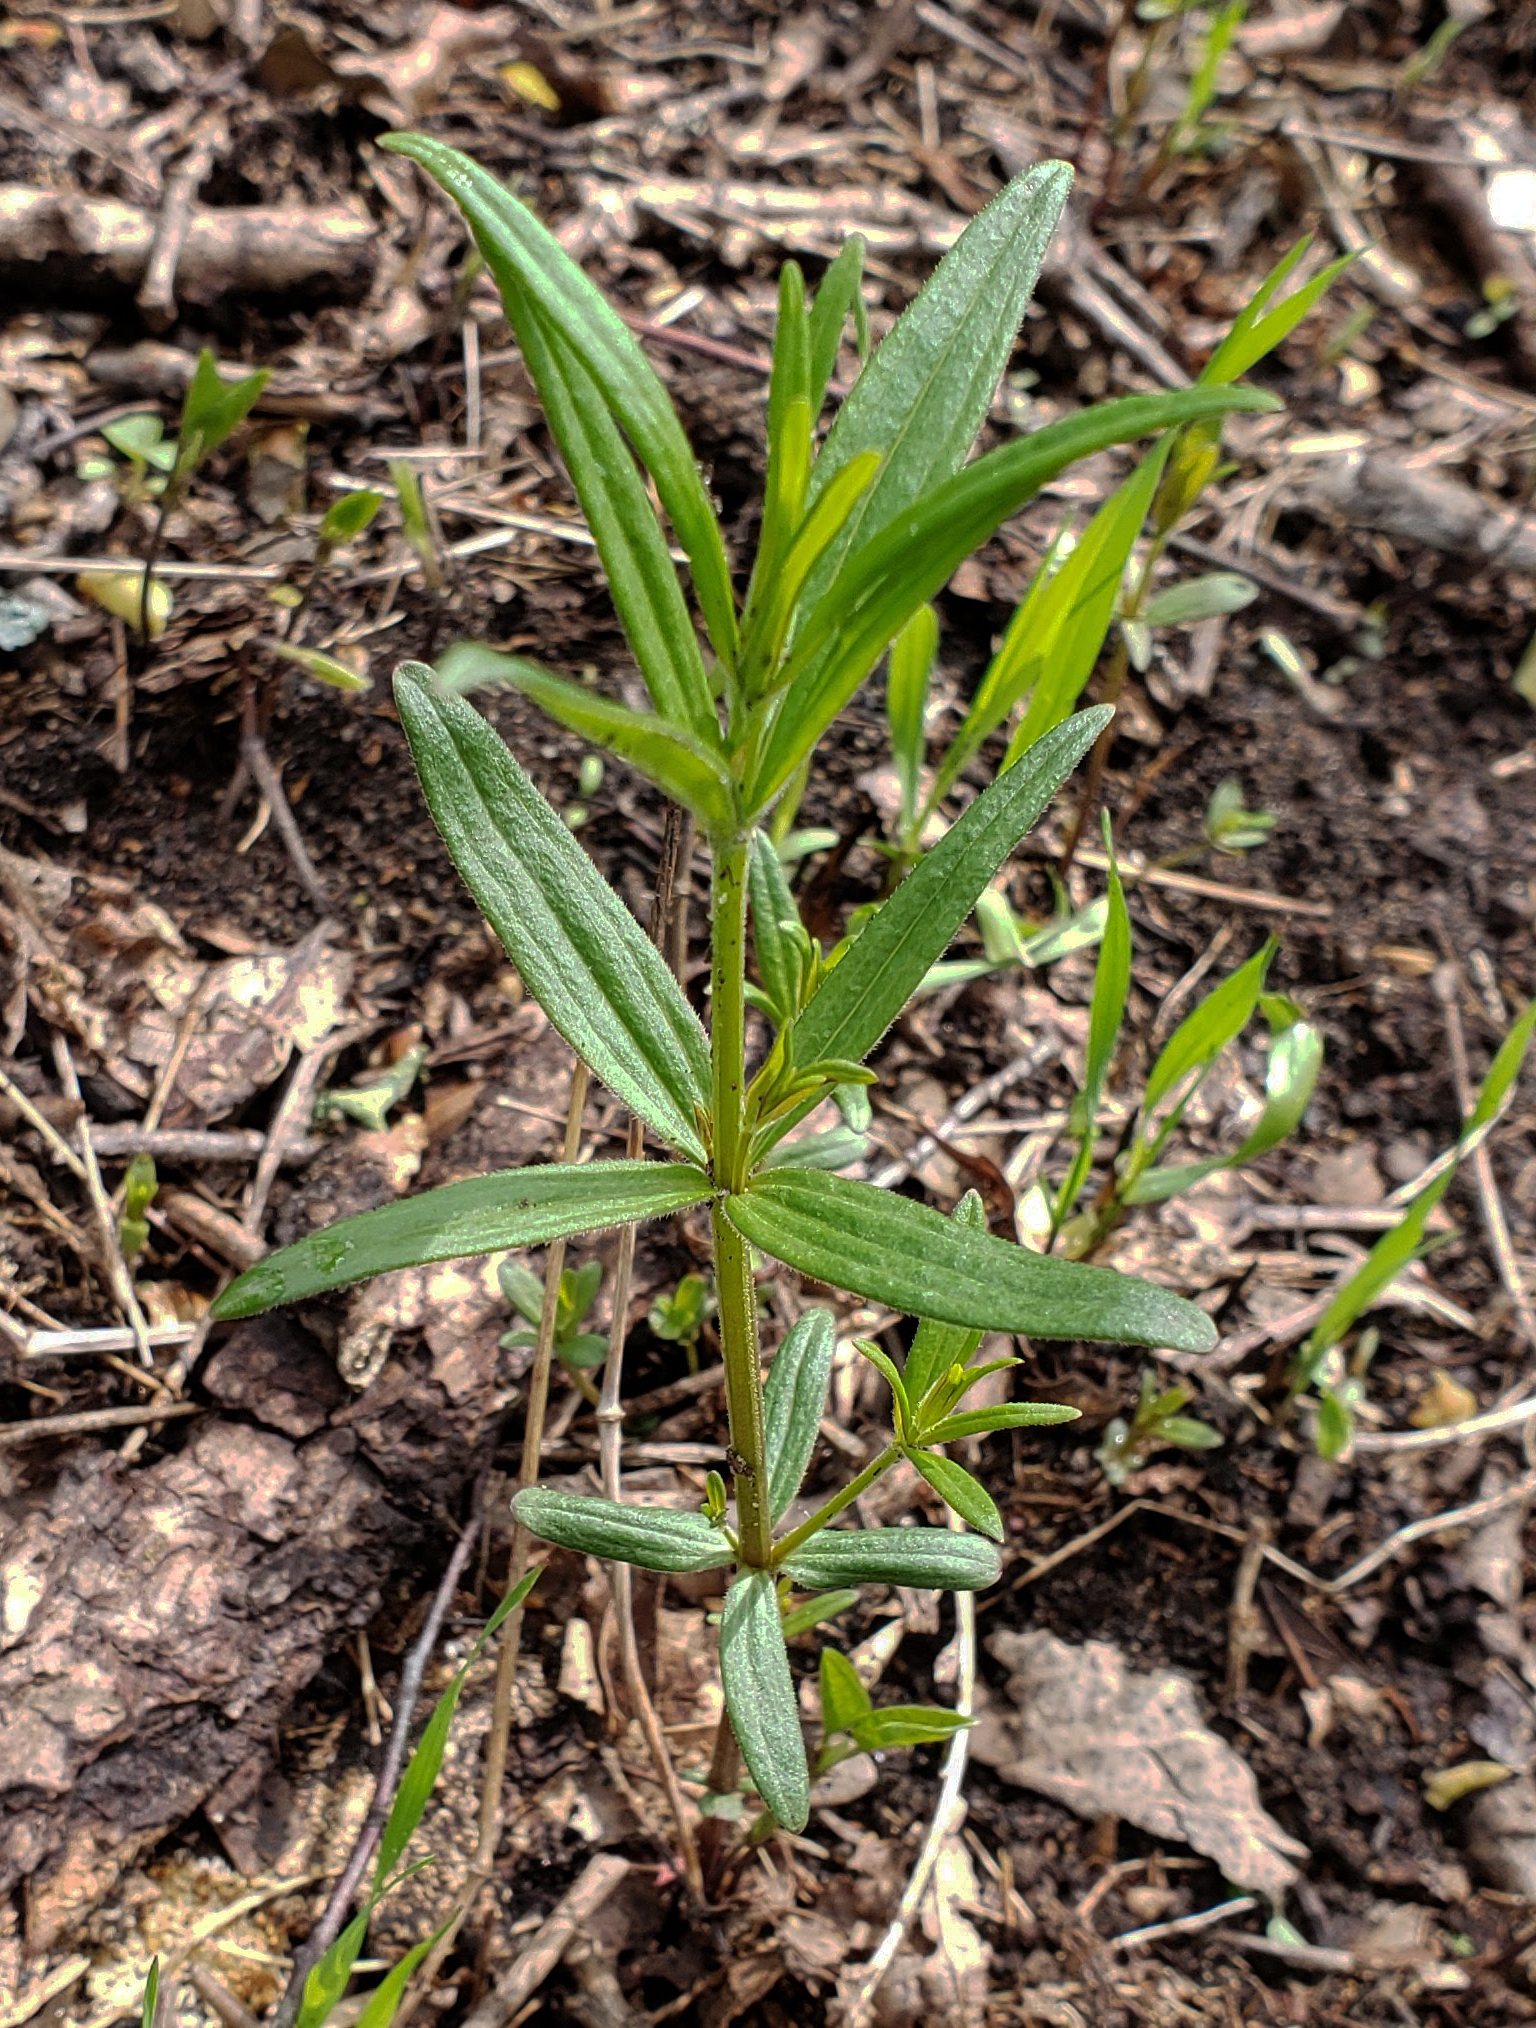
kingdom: Plantae
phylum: Tracheophyta
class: Magnoliopsida
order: Gentianales
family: Rubiaceae
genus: Galium
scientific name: Galium boreale
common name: Northern bedstraw
